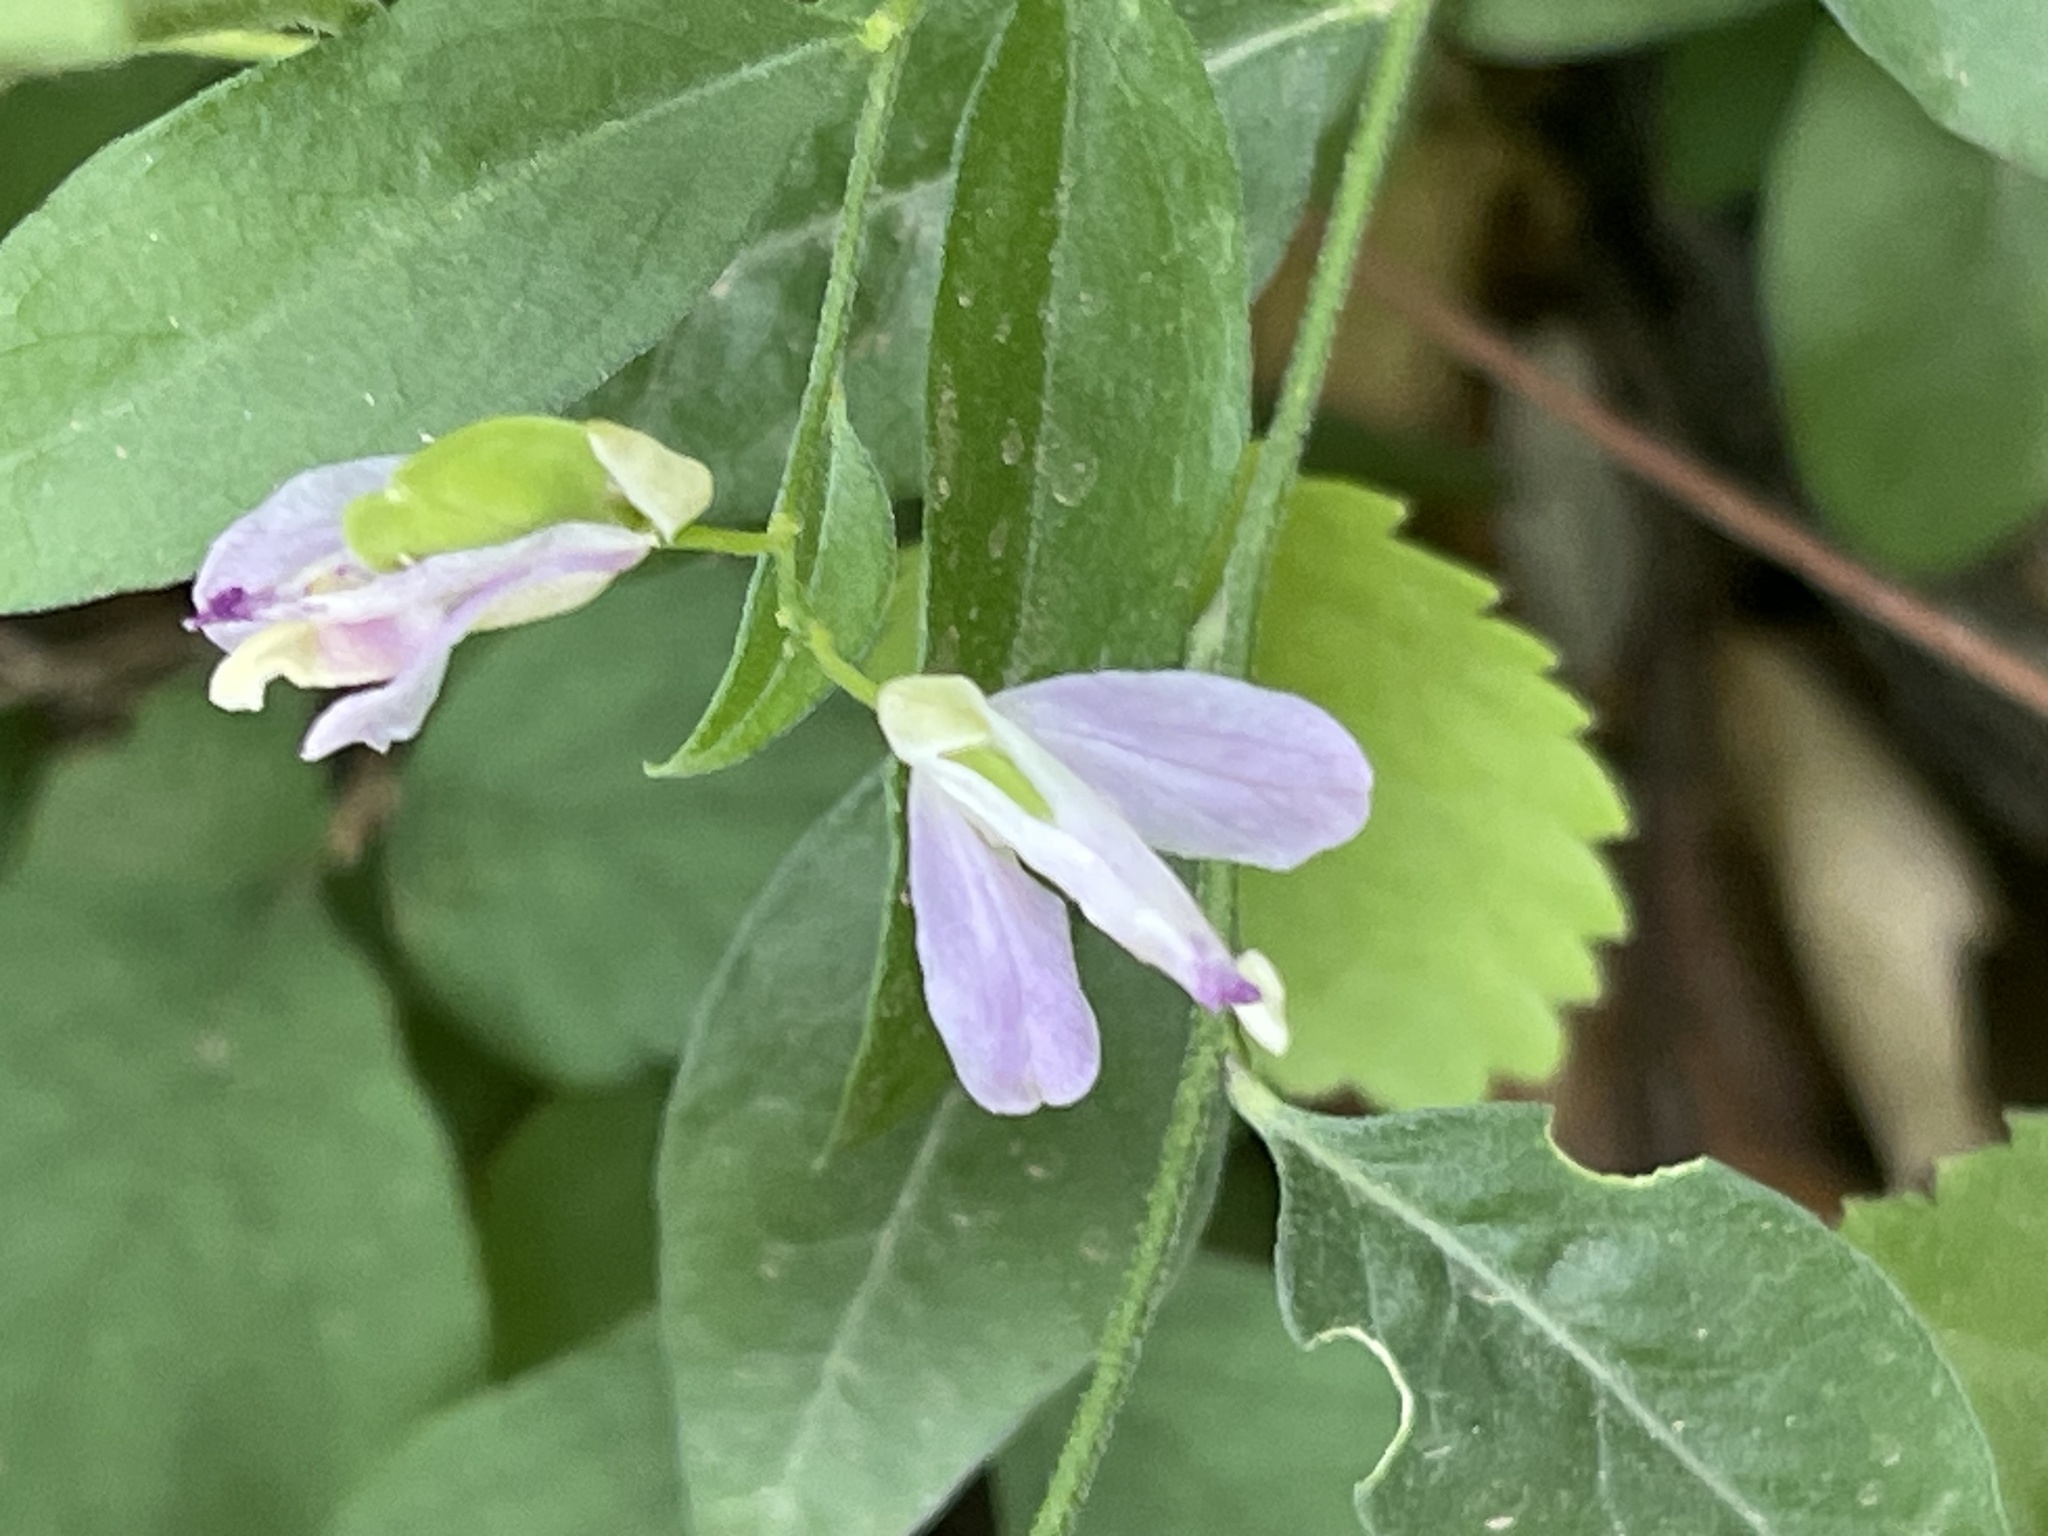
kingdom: Plantae
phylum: Tracheophyta
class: Magnoliopsida
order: Fabales
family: Polygalaceae
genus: Rhinotropis
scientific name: Rhinotropis californica
